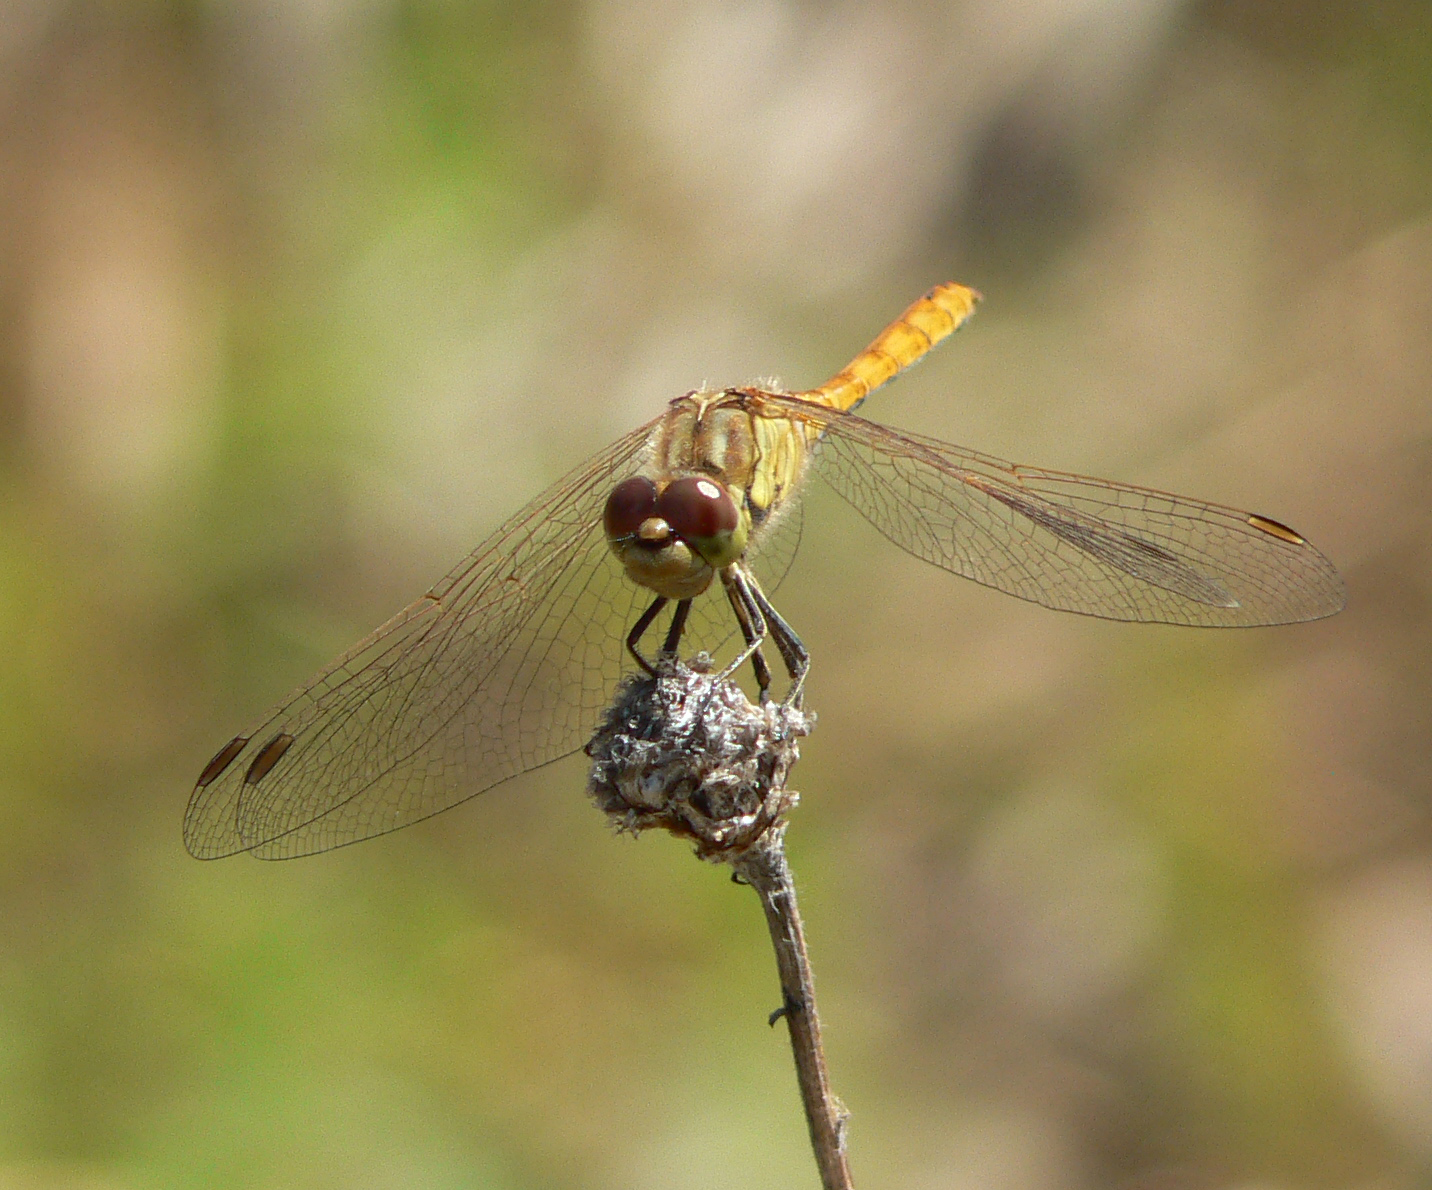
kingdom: Animalia
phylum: Arthropoda
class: Insecta
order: Odonata
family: Libellulidae
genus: Sympetrum
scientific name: Sympetrum vulgatum
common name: Vagrant darter
